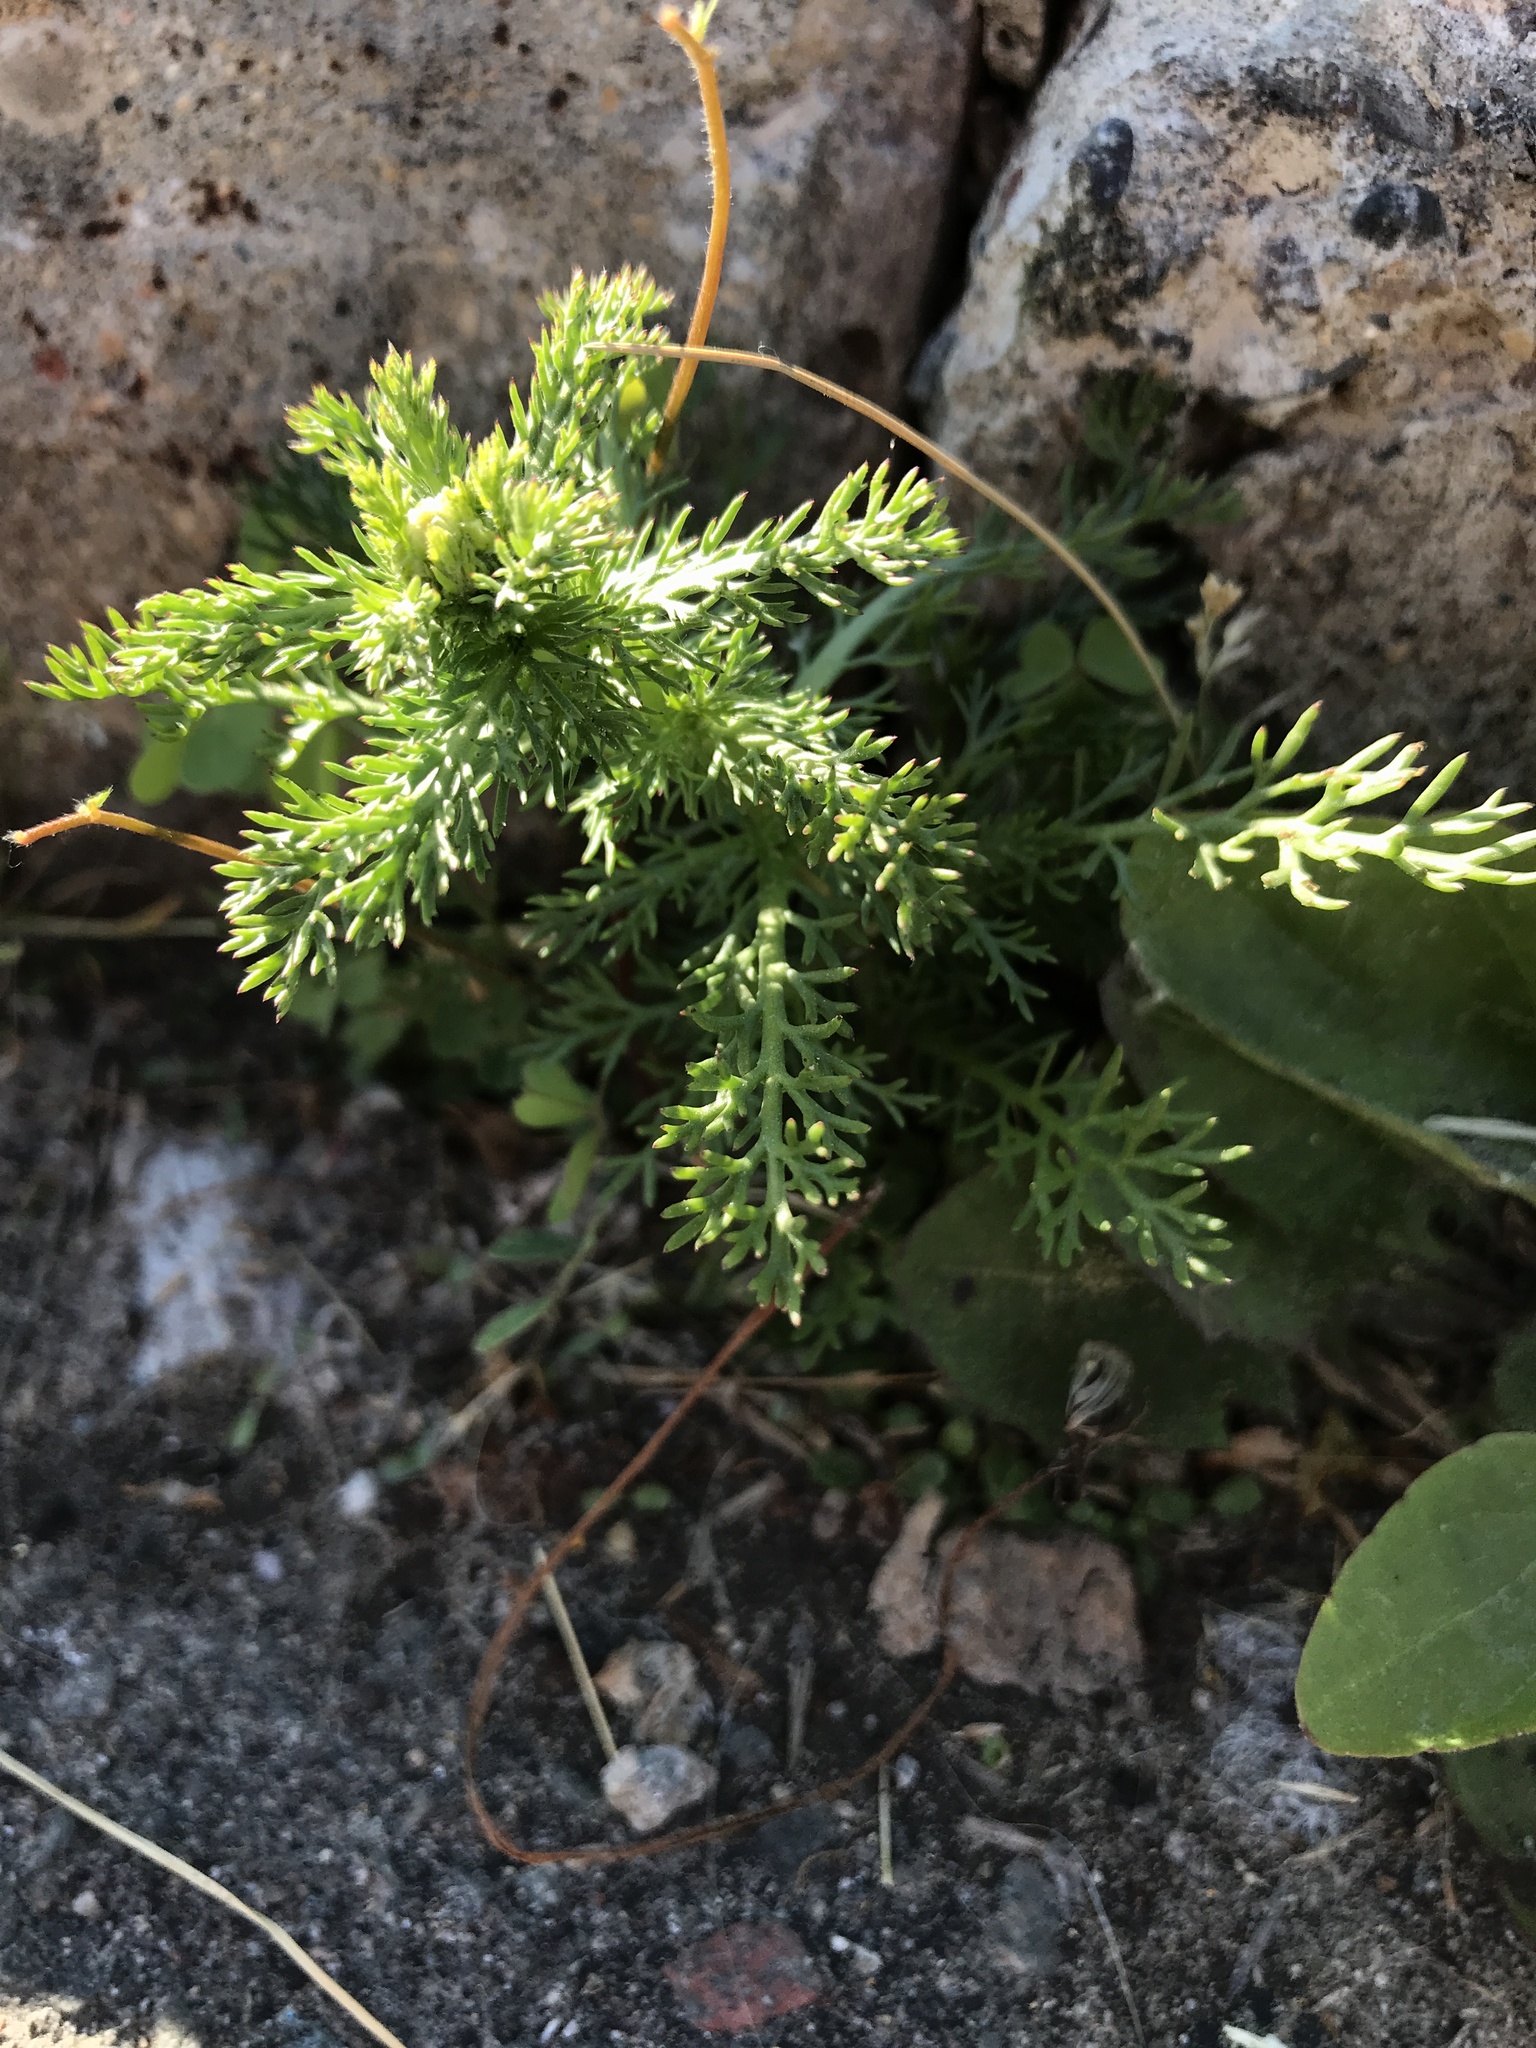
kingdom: Plantae
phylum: Tracheophyta
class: Magnoliopsida
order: Asterales
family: Asteraceae
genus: Matricaria
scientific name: Matricaria discoidea
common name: Disc mayweed
